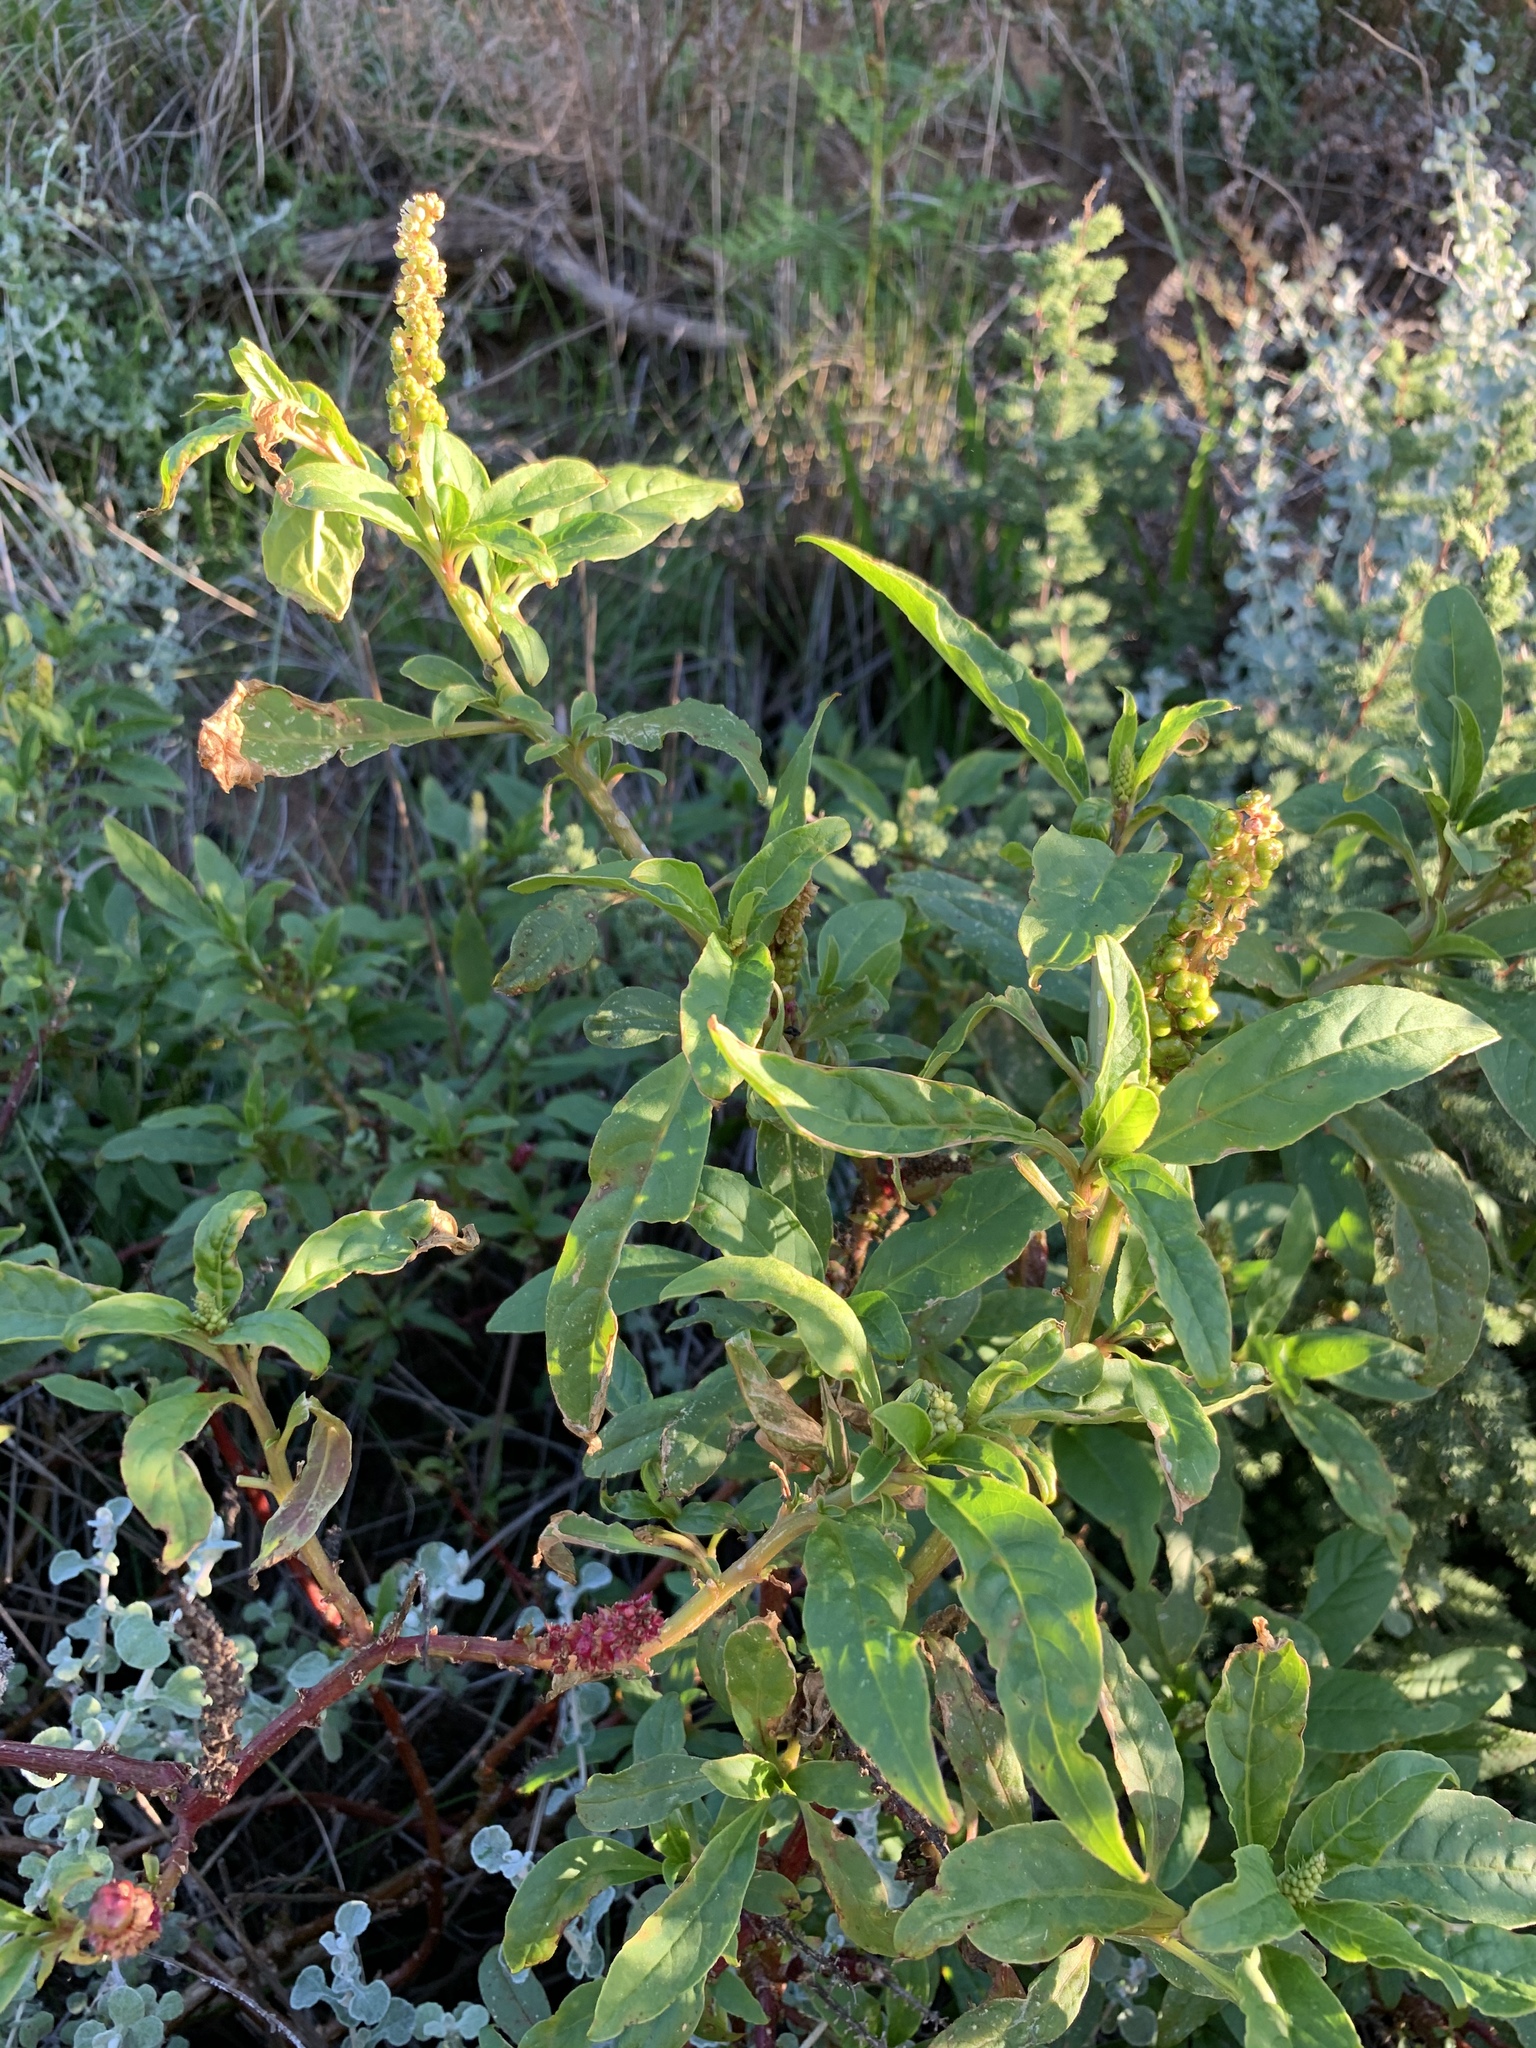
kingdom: Plantae
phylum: Tracheophyta
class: Magnoliopsida
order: Caryophyllales
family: Phytolaccaceae
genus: Phytolacca
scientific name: Phytolacca icosandra
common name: Button pokeweed
